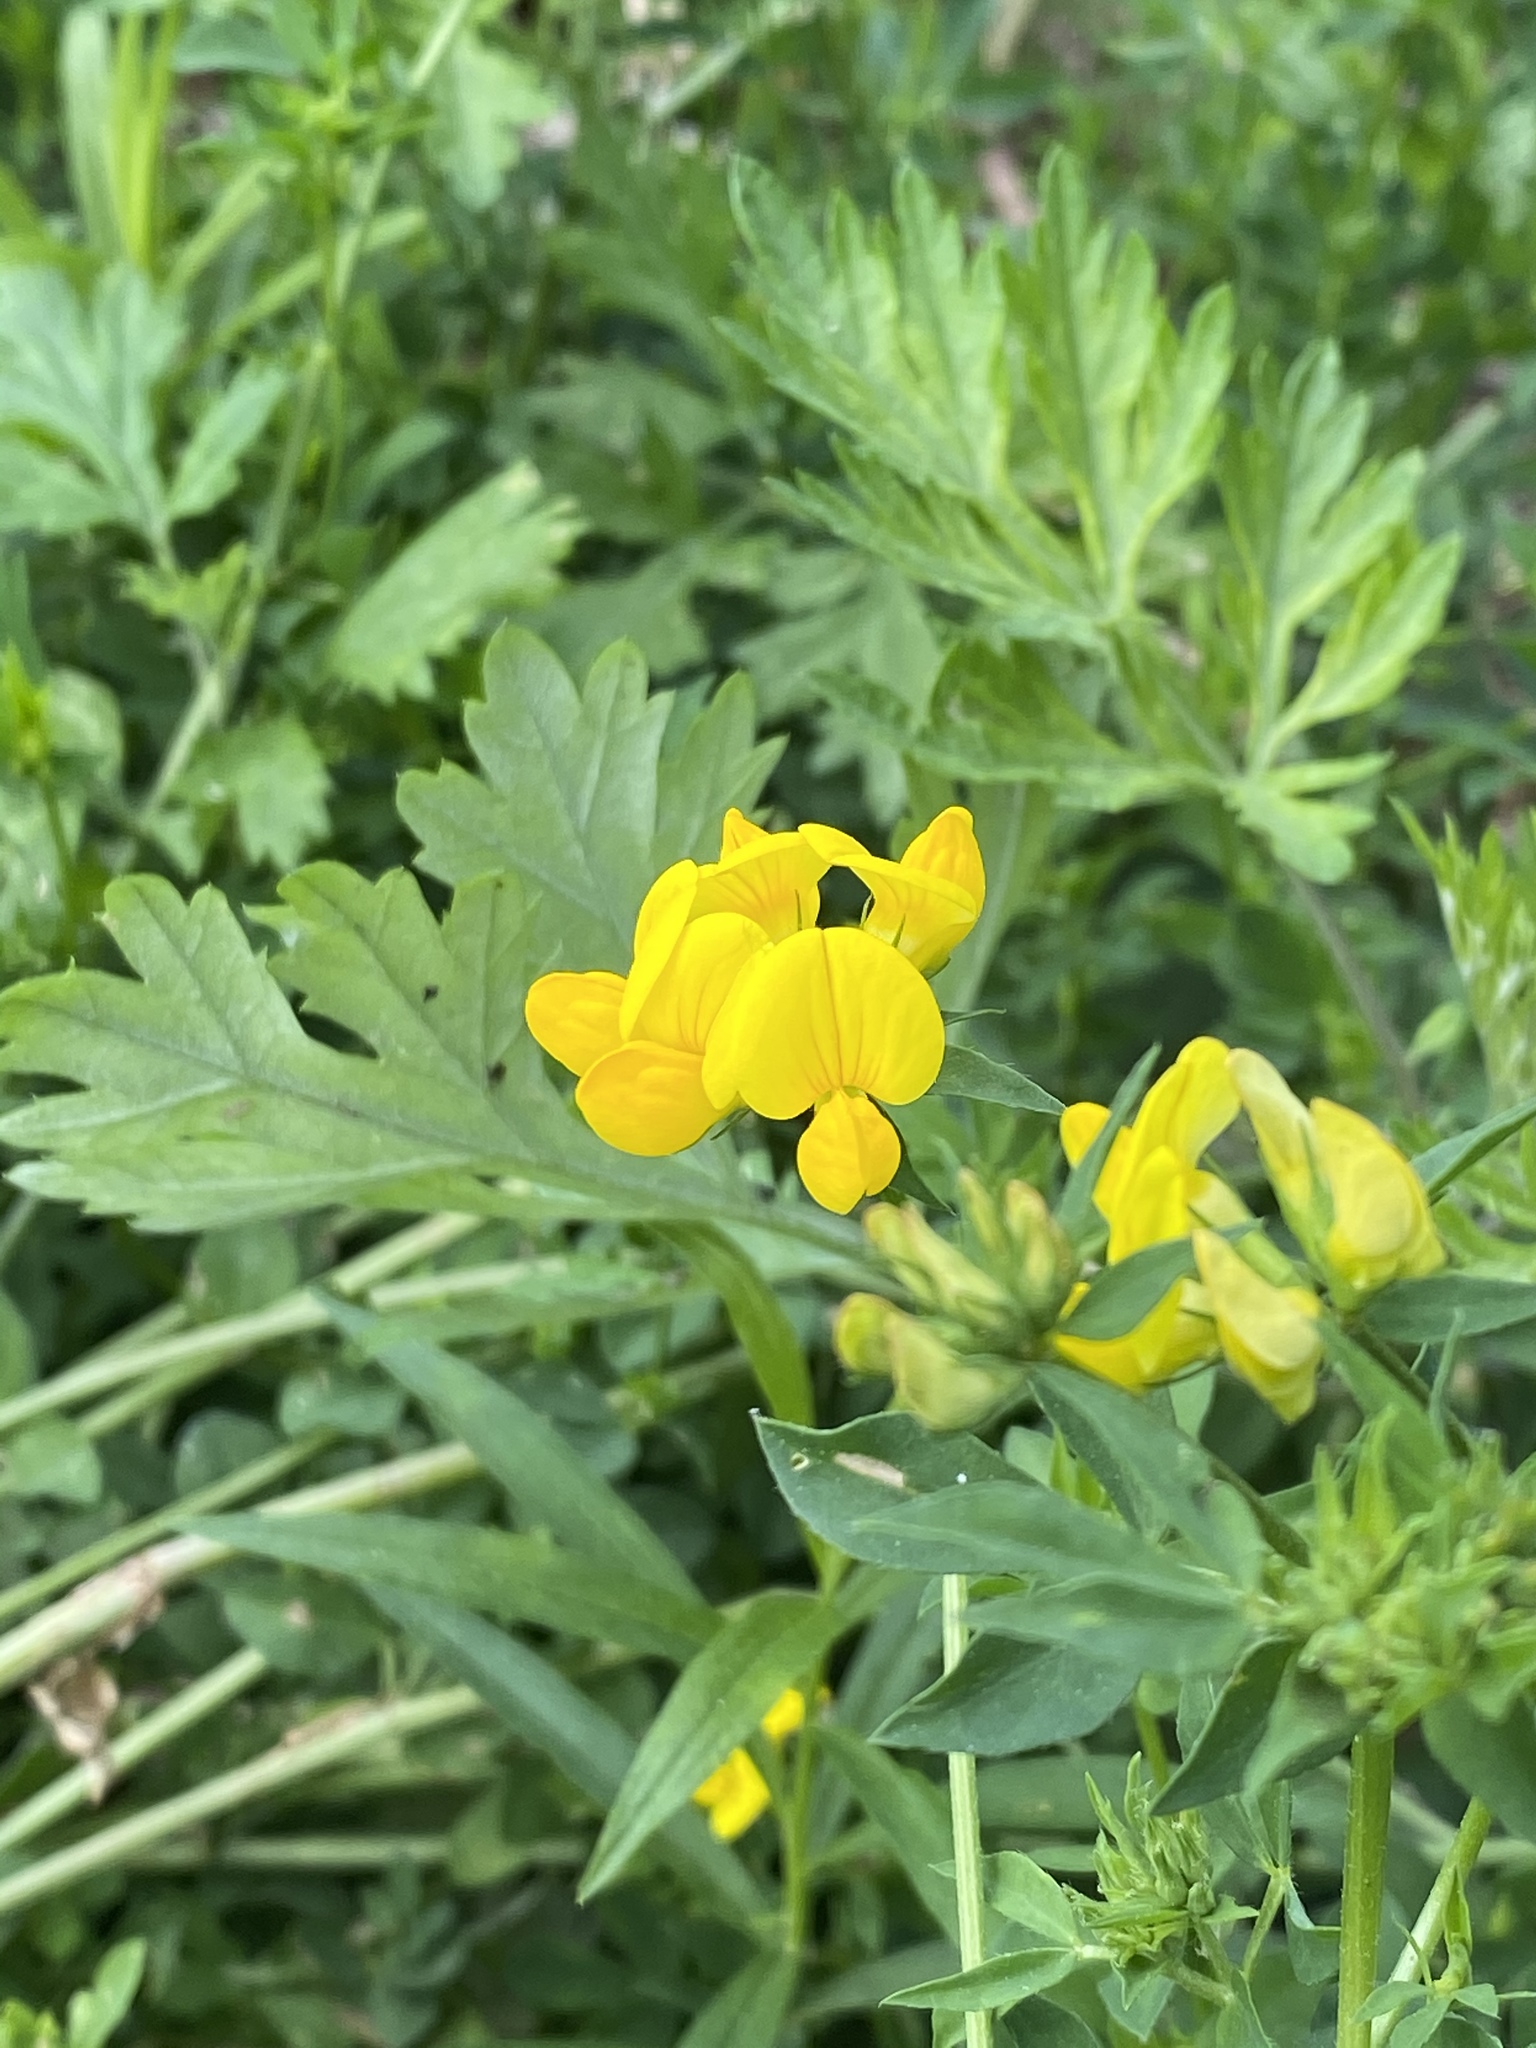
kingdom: Plantae
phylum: Tracheophyta
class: Magnoliopsida
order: Fabales
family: Fabaceae
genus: Lotus
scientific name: Lotus corniculatus
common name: Common bird's-foot-trefoil
